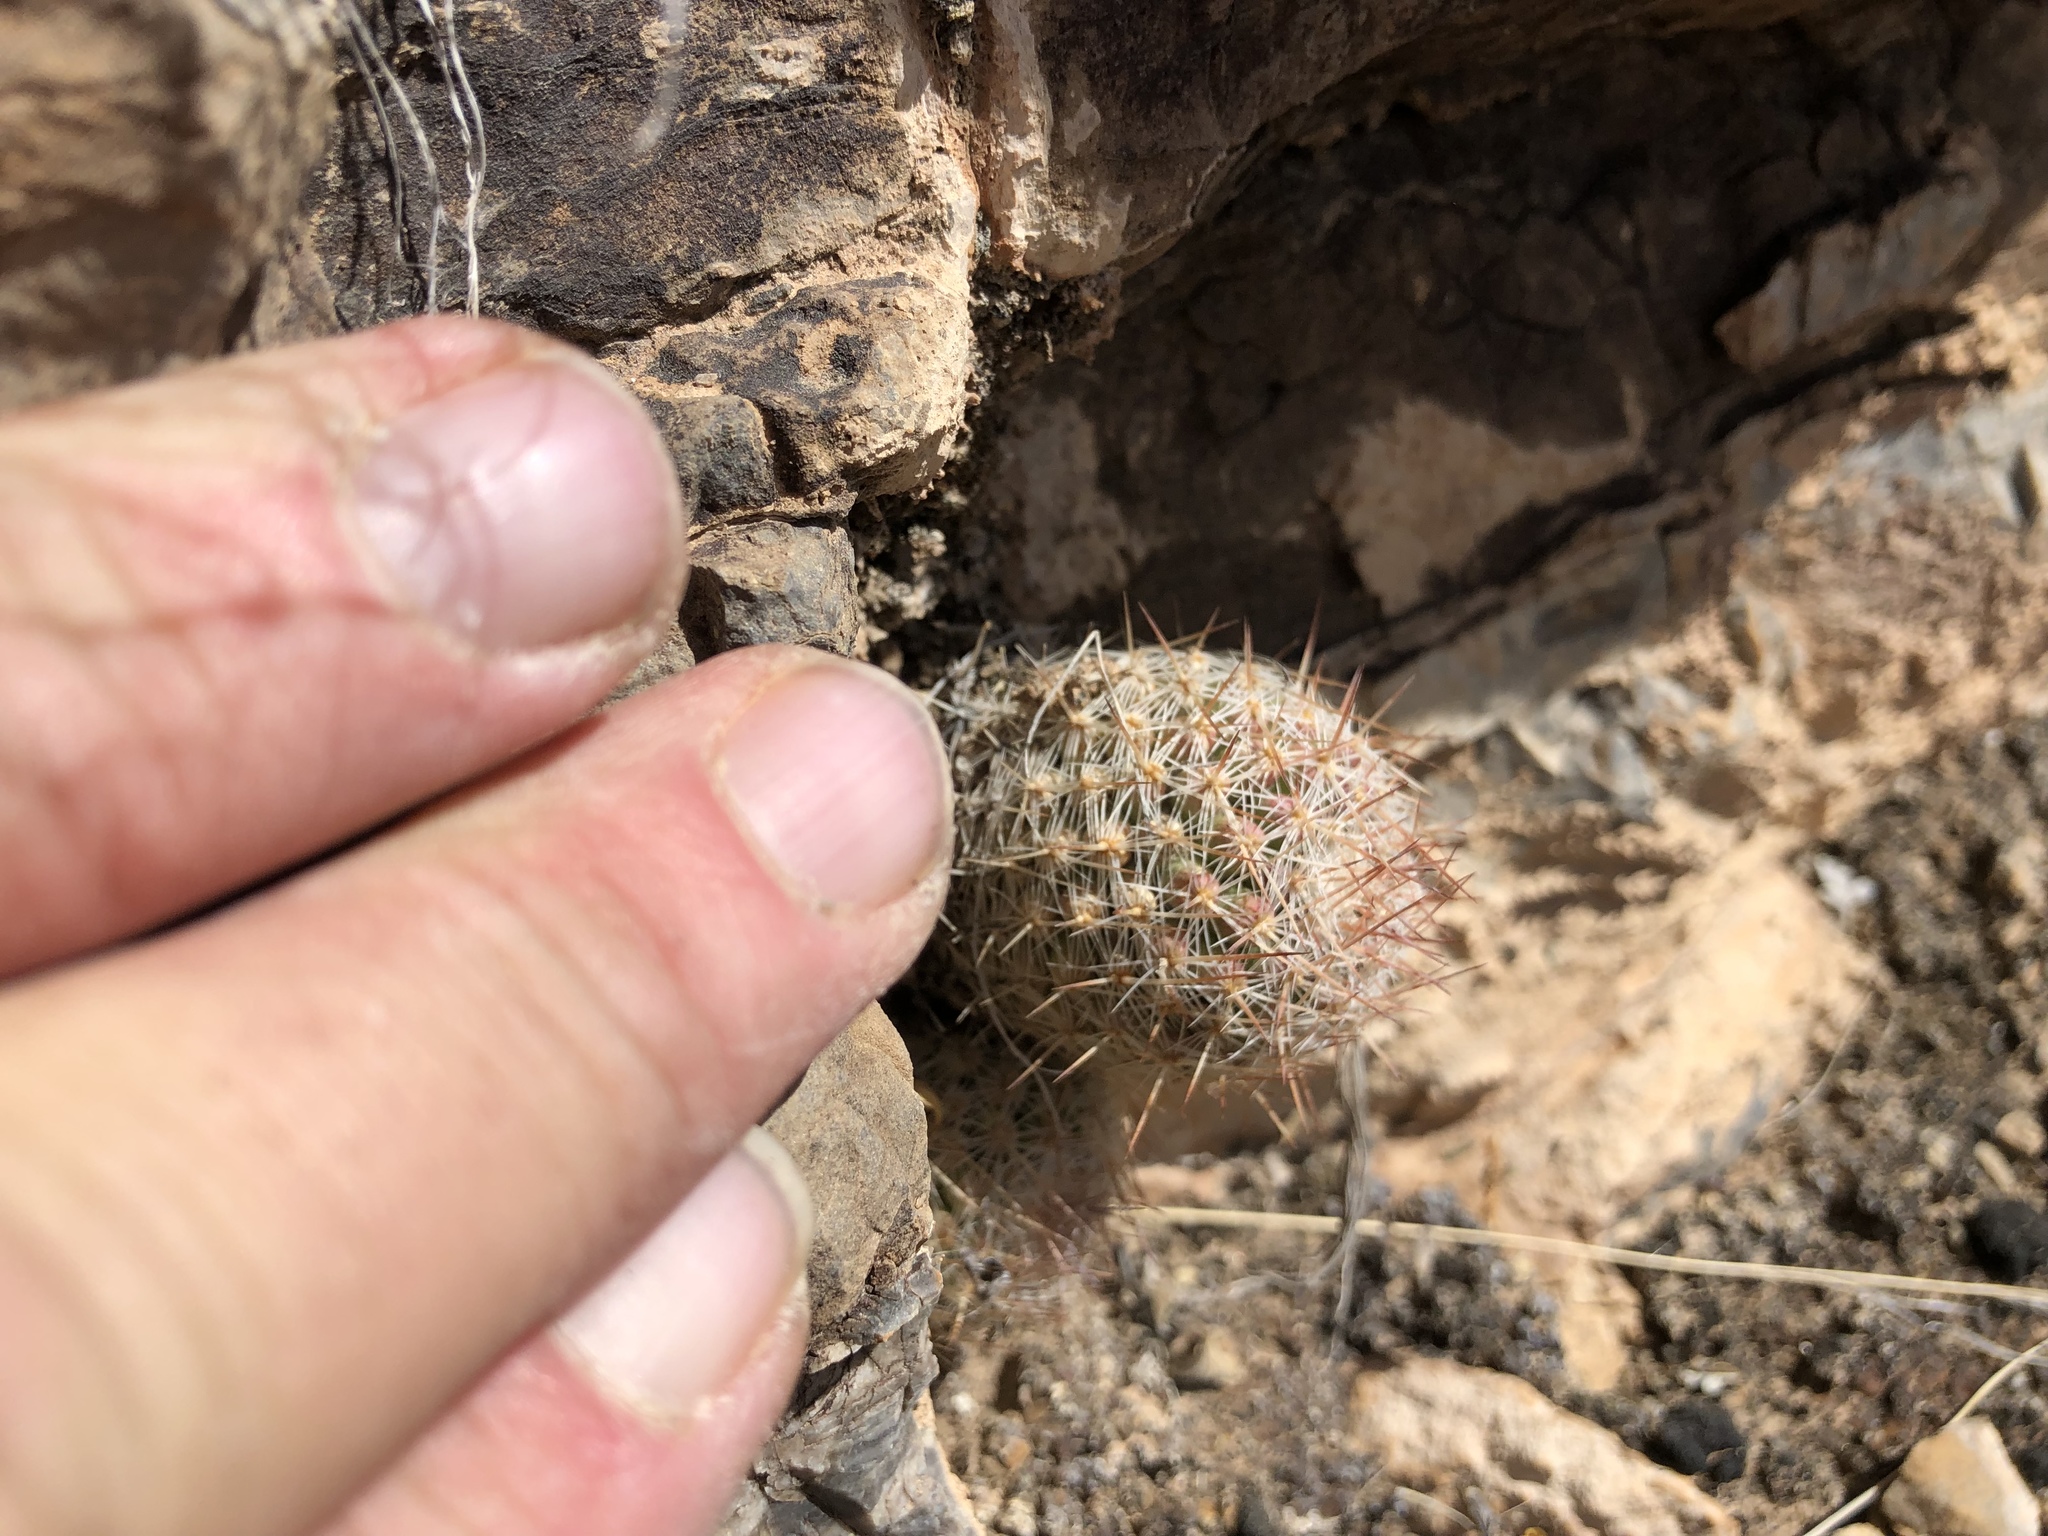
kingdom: Plantae
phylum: Tracheophyta
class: Magnoliopsida
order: Caryophyllales
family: Cactaceae
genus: Pelecyphora
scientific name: Pelecyphora tuberculosa
